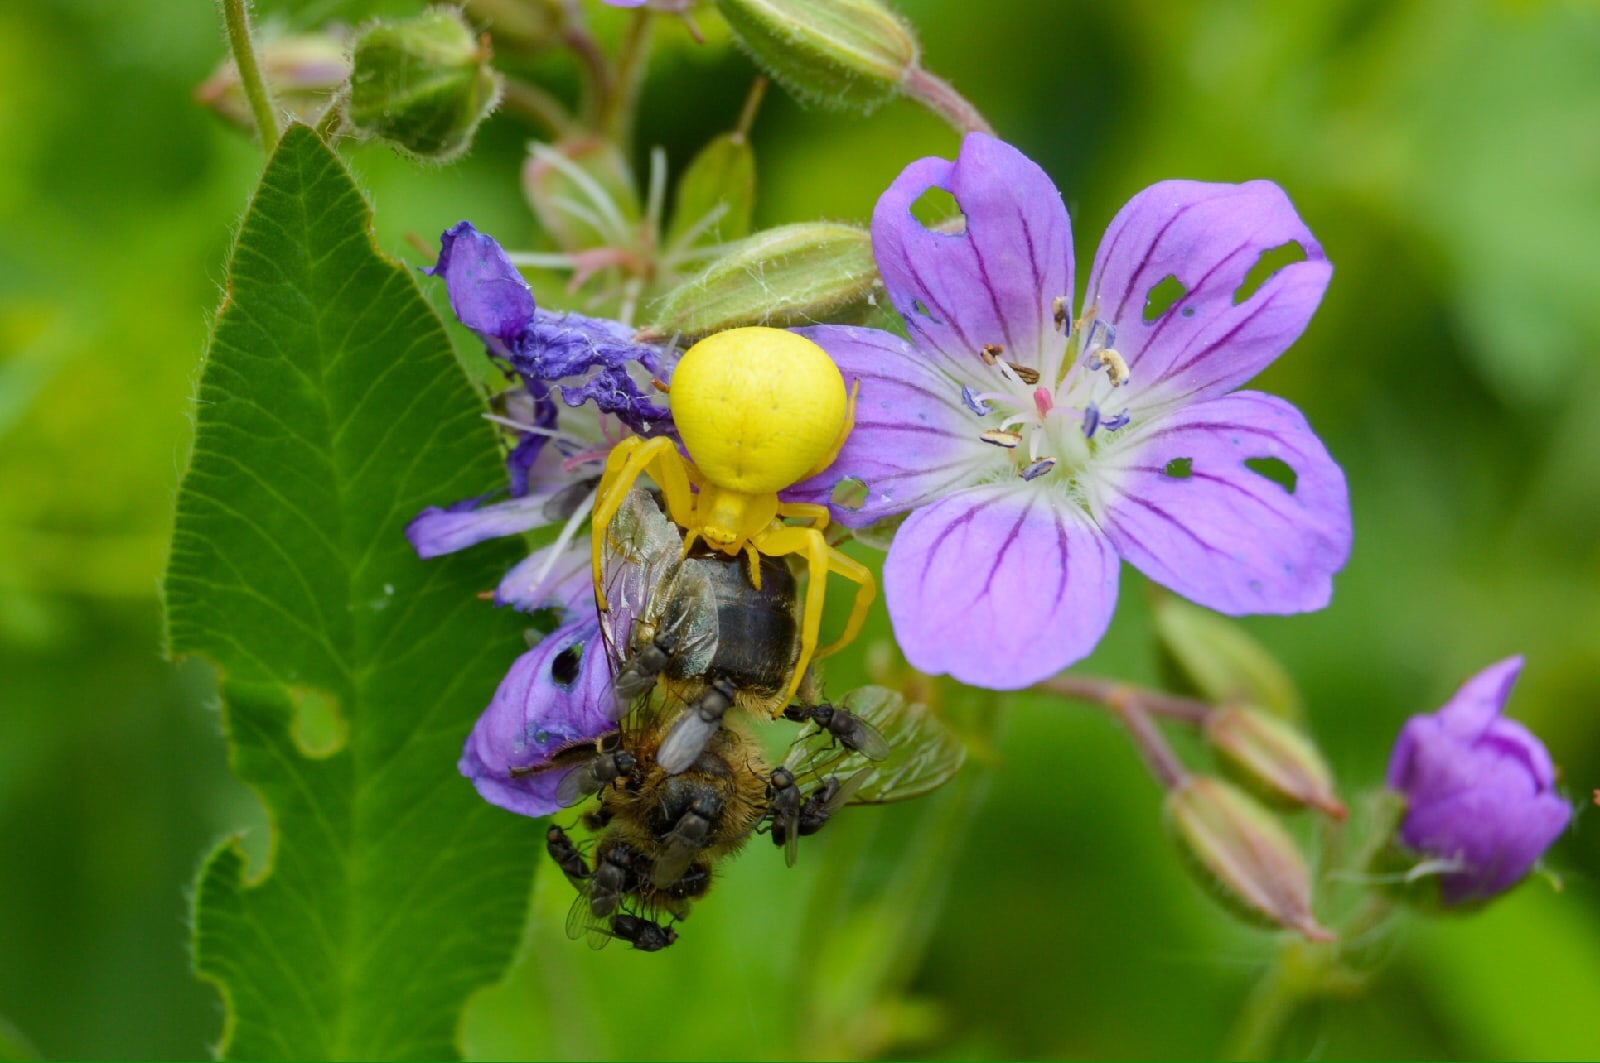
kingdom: Animalia
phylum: Arthropoda
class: Arachnida
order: Araneae
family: Thomisidae
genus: Misumena
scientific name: Misumena vatia
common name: Goldenrod crab spider
